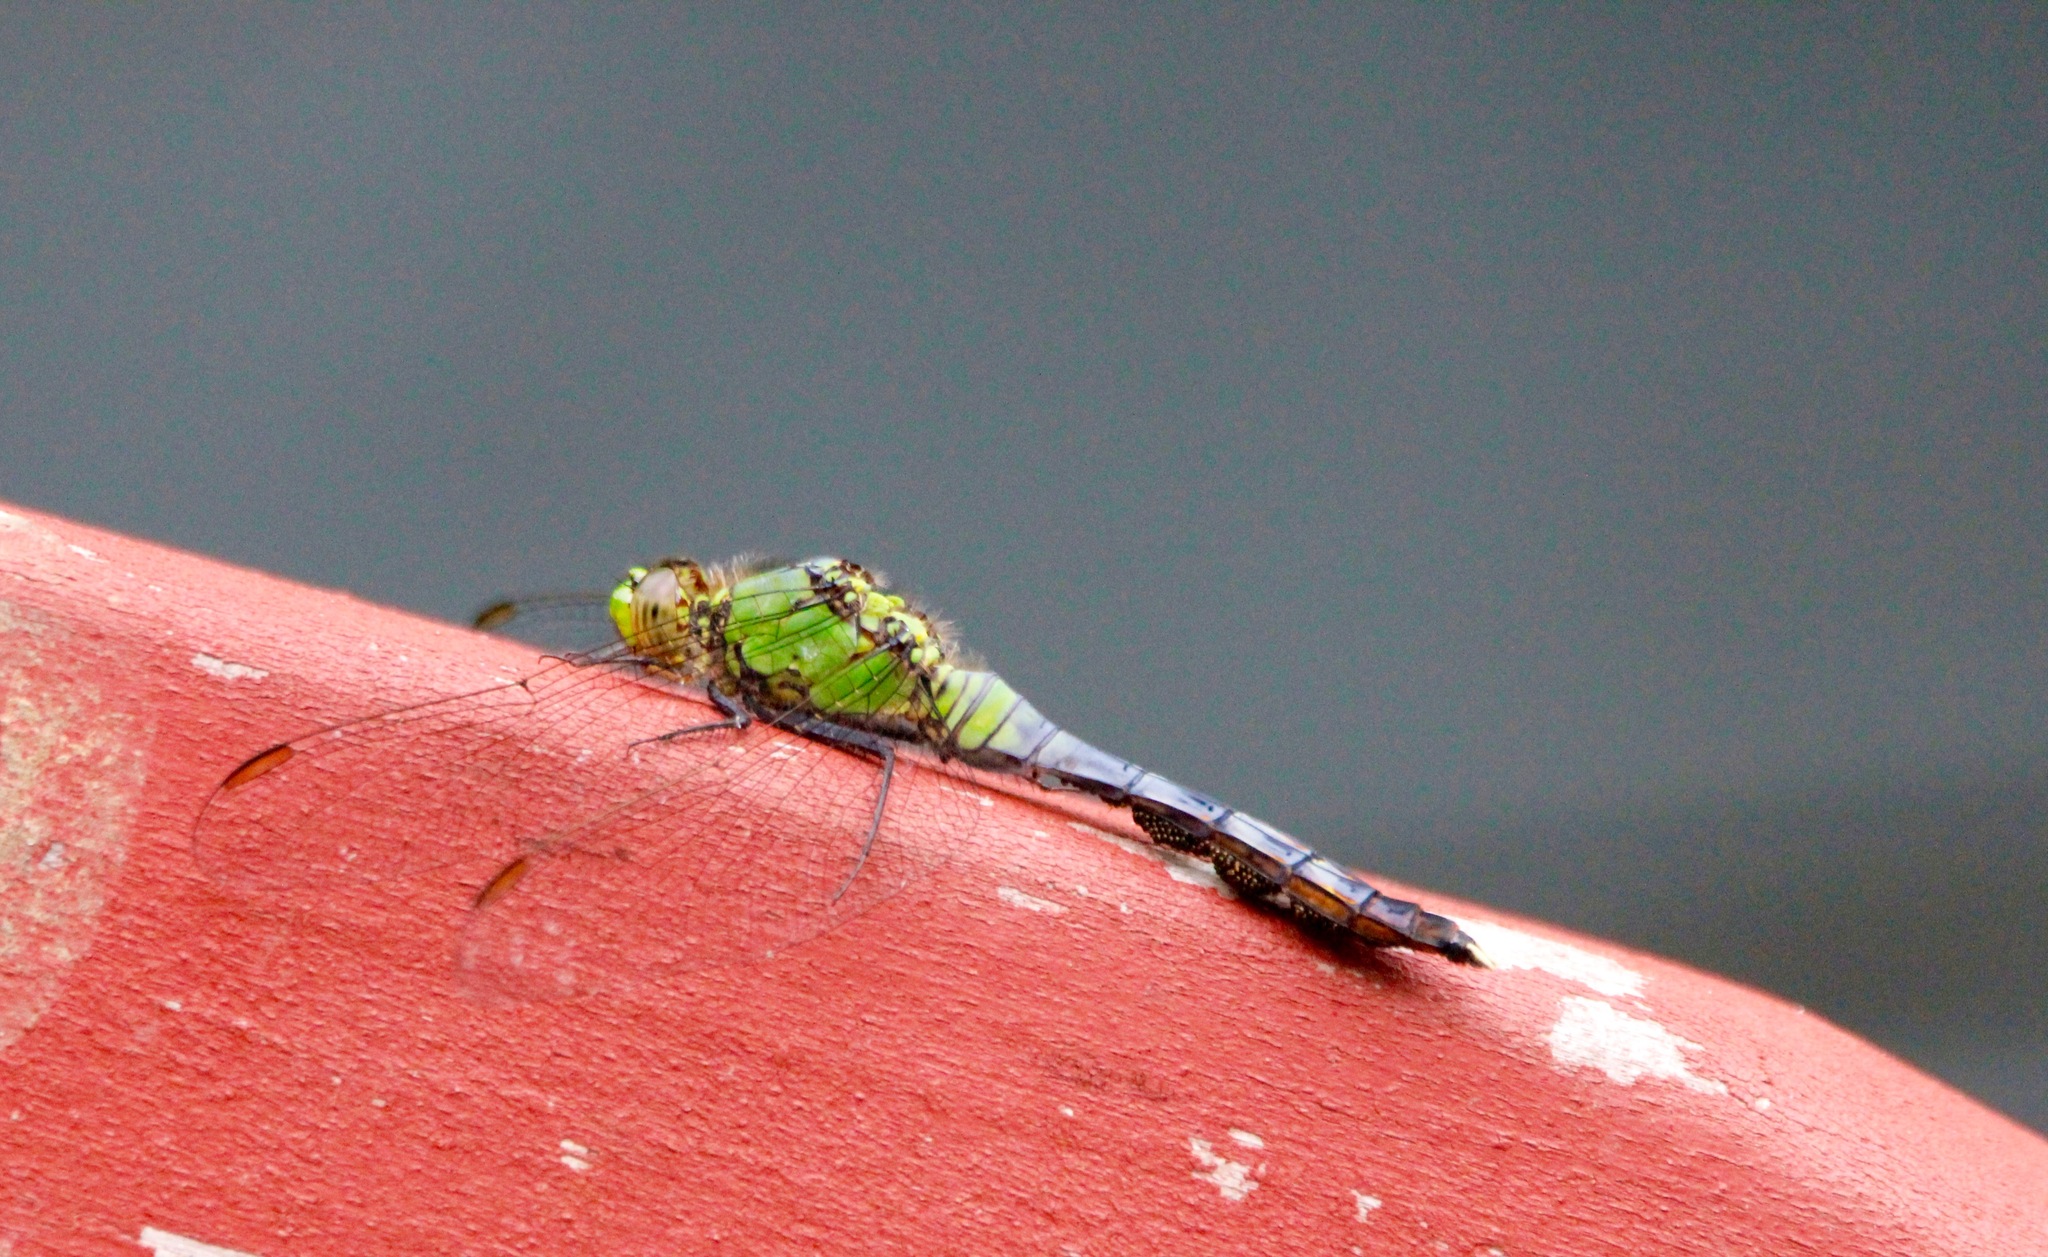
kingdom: Animalia
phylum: Arthropoda
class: Insecta
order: Odonata
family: Libellulidae
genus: Erythemis
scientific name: Erythemis simplicicollis
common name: Eastern pondhawk
